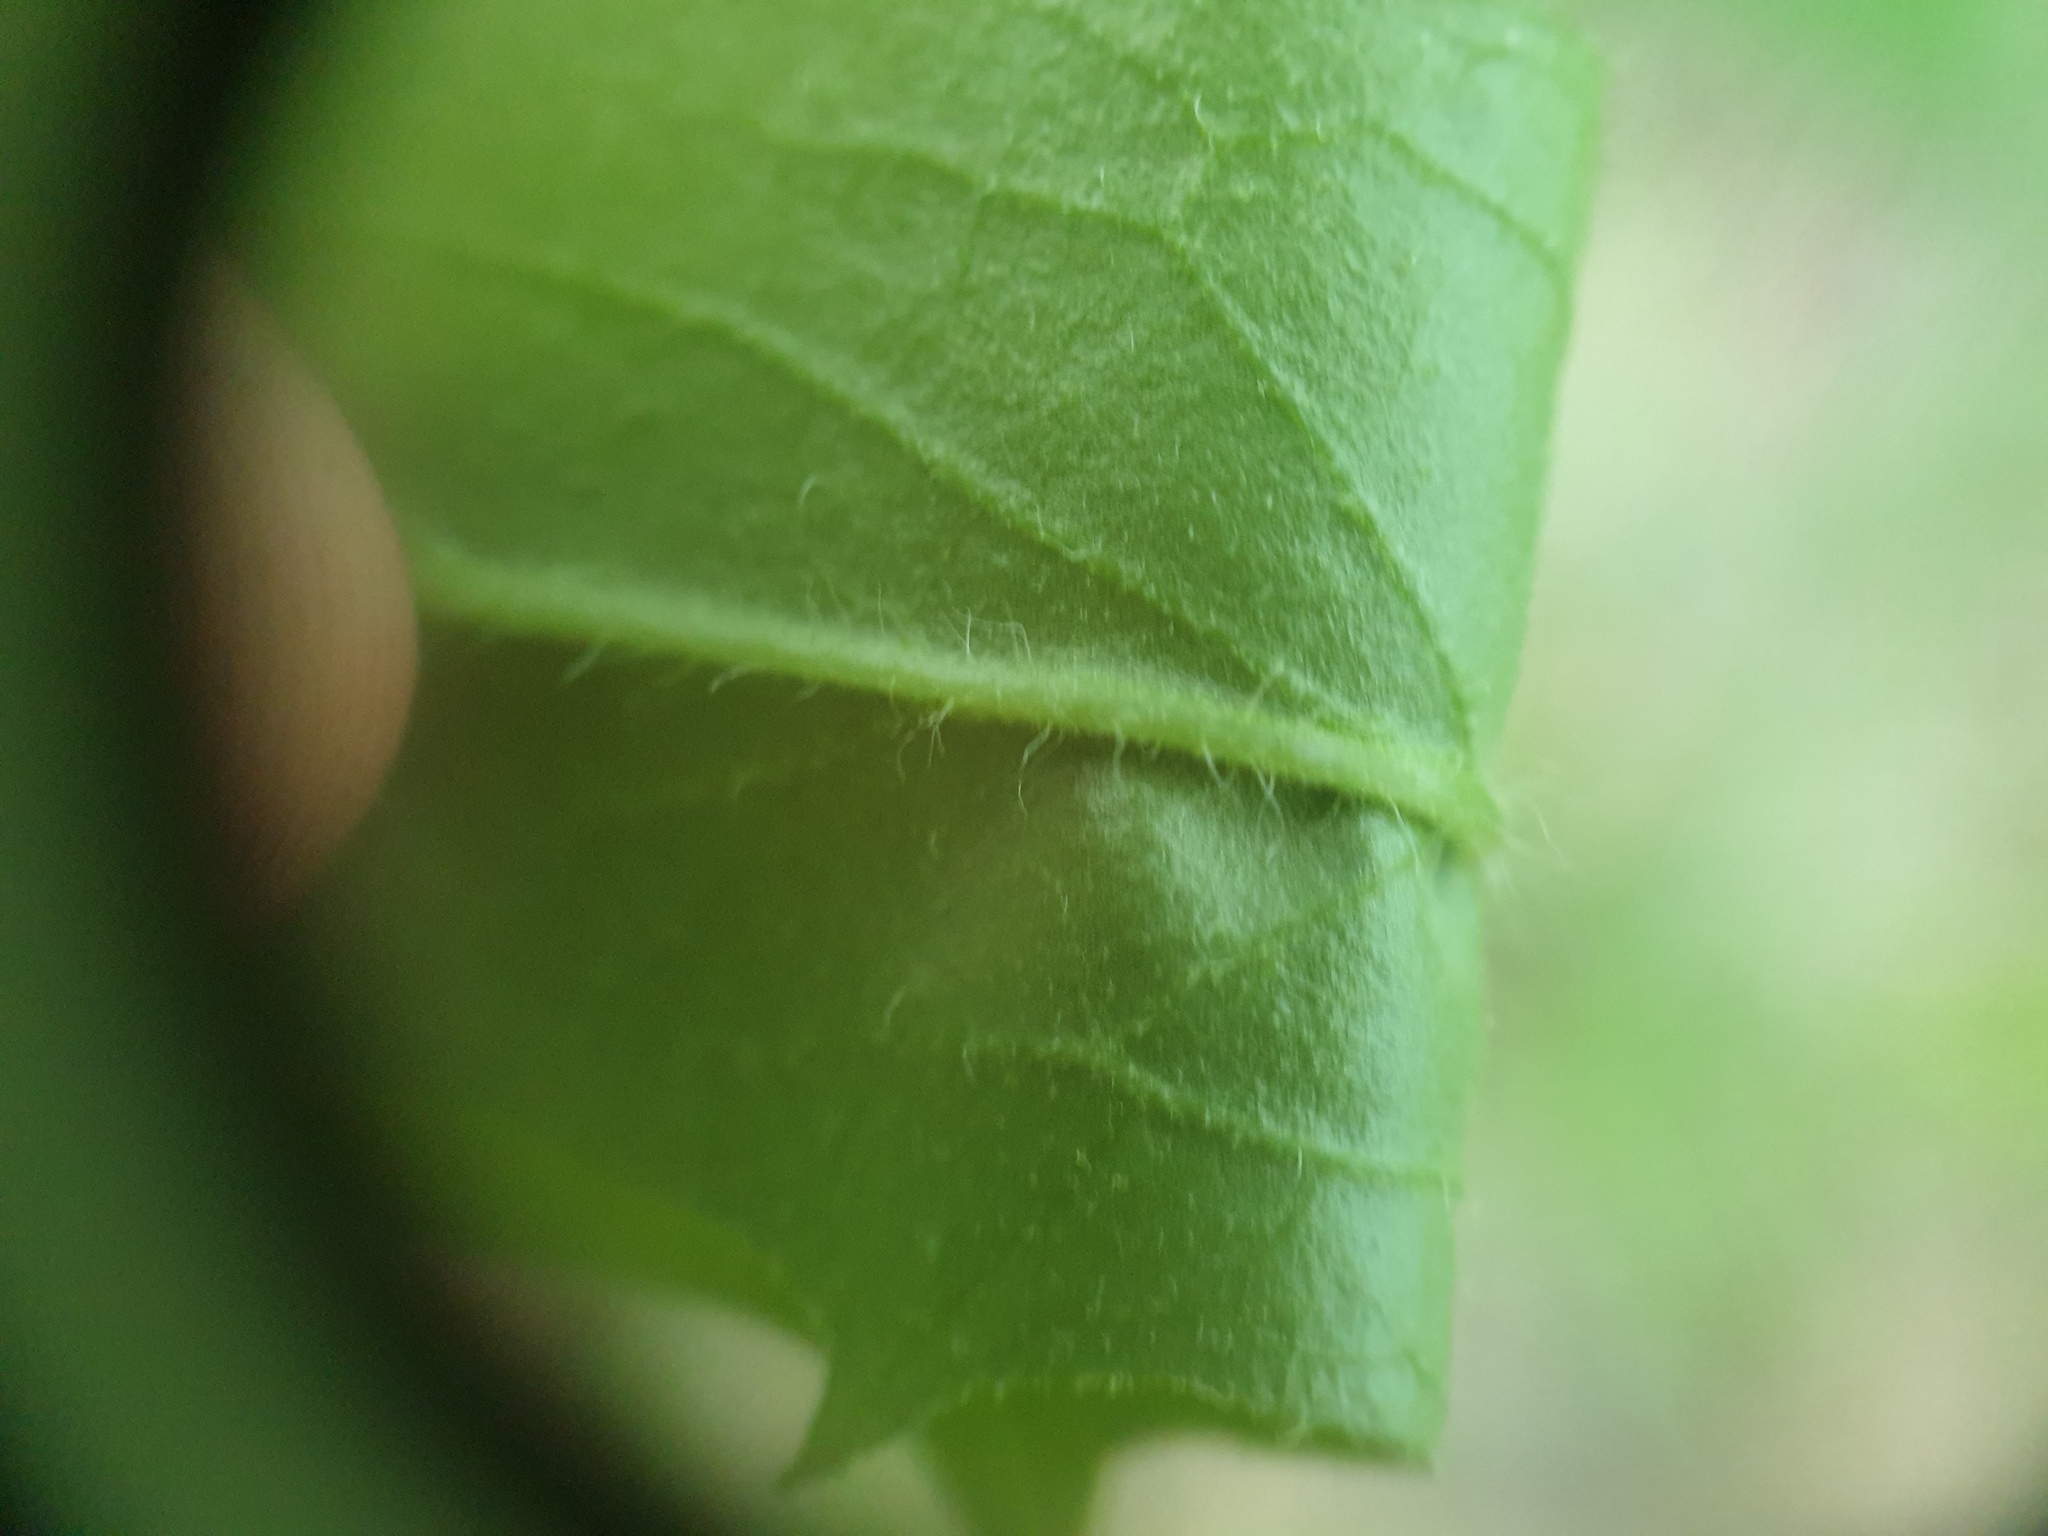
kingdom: Plantae
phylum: Tracheophyta
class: Magnoliopsida
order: Asterales
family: Asteraceae
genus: Hieracium
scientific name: Hieracium tridentatum
